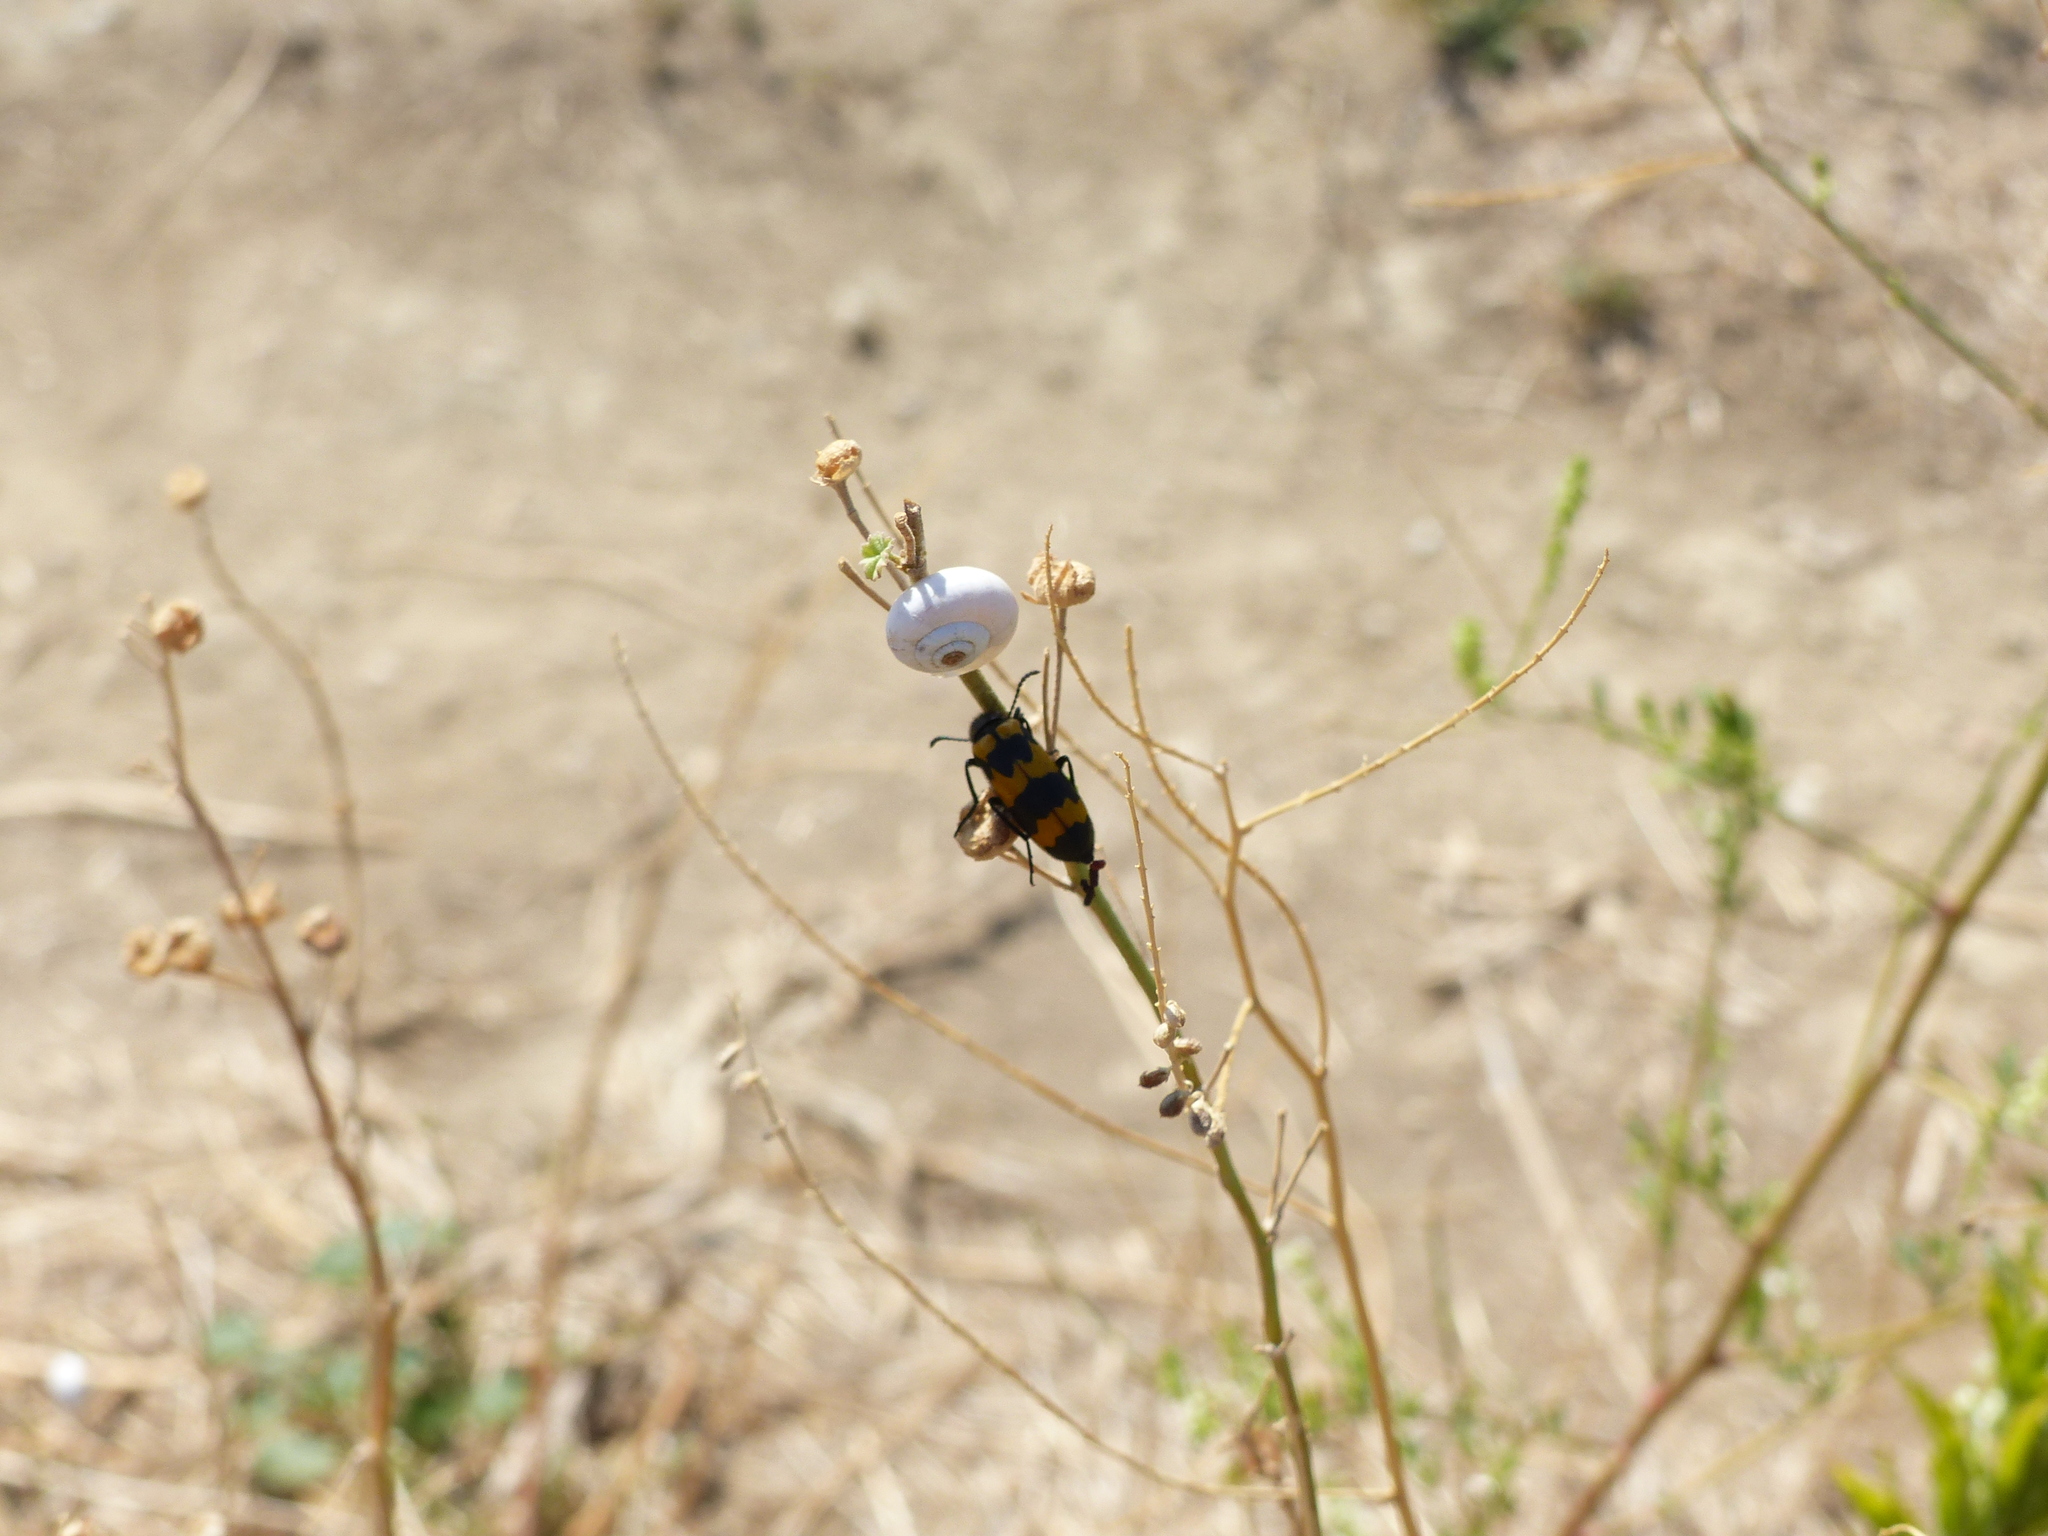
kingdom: Animalia
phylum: Arthropoda
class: Insecta
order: Coleoptera
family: Meloidae
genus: Mylabris
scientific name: Mylabris variabilis
